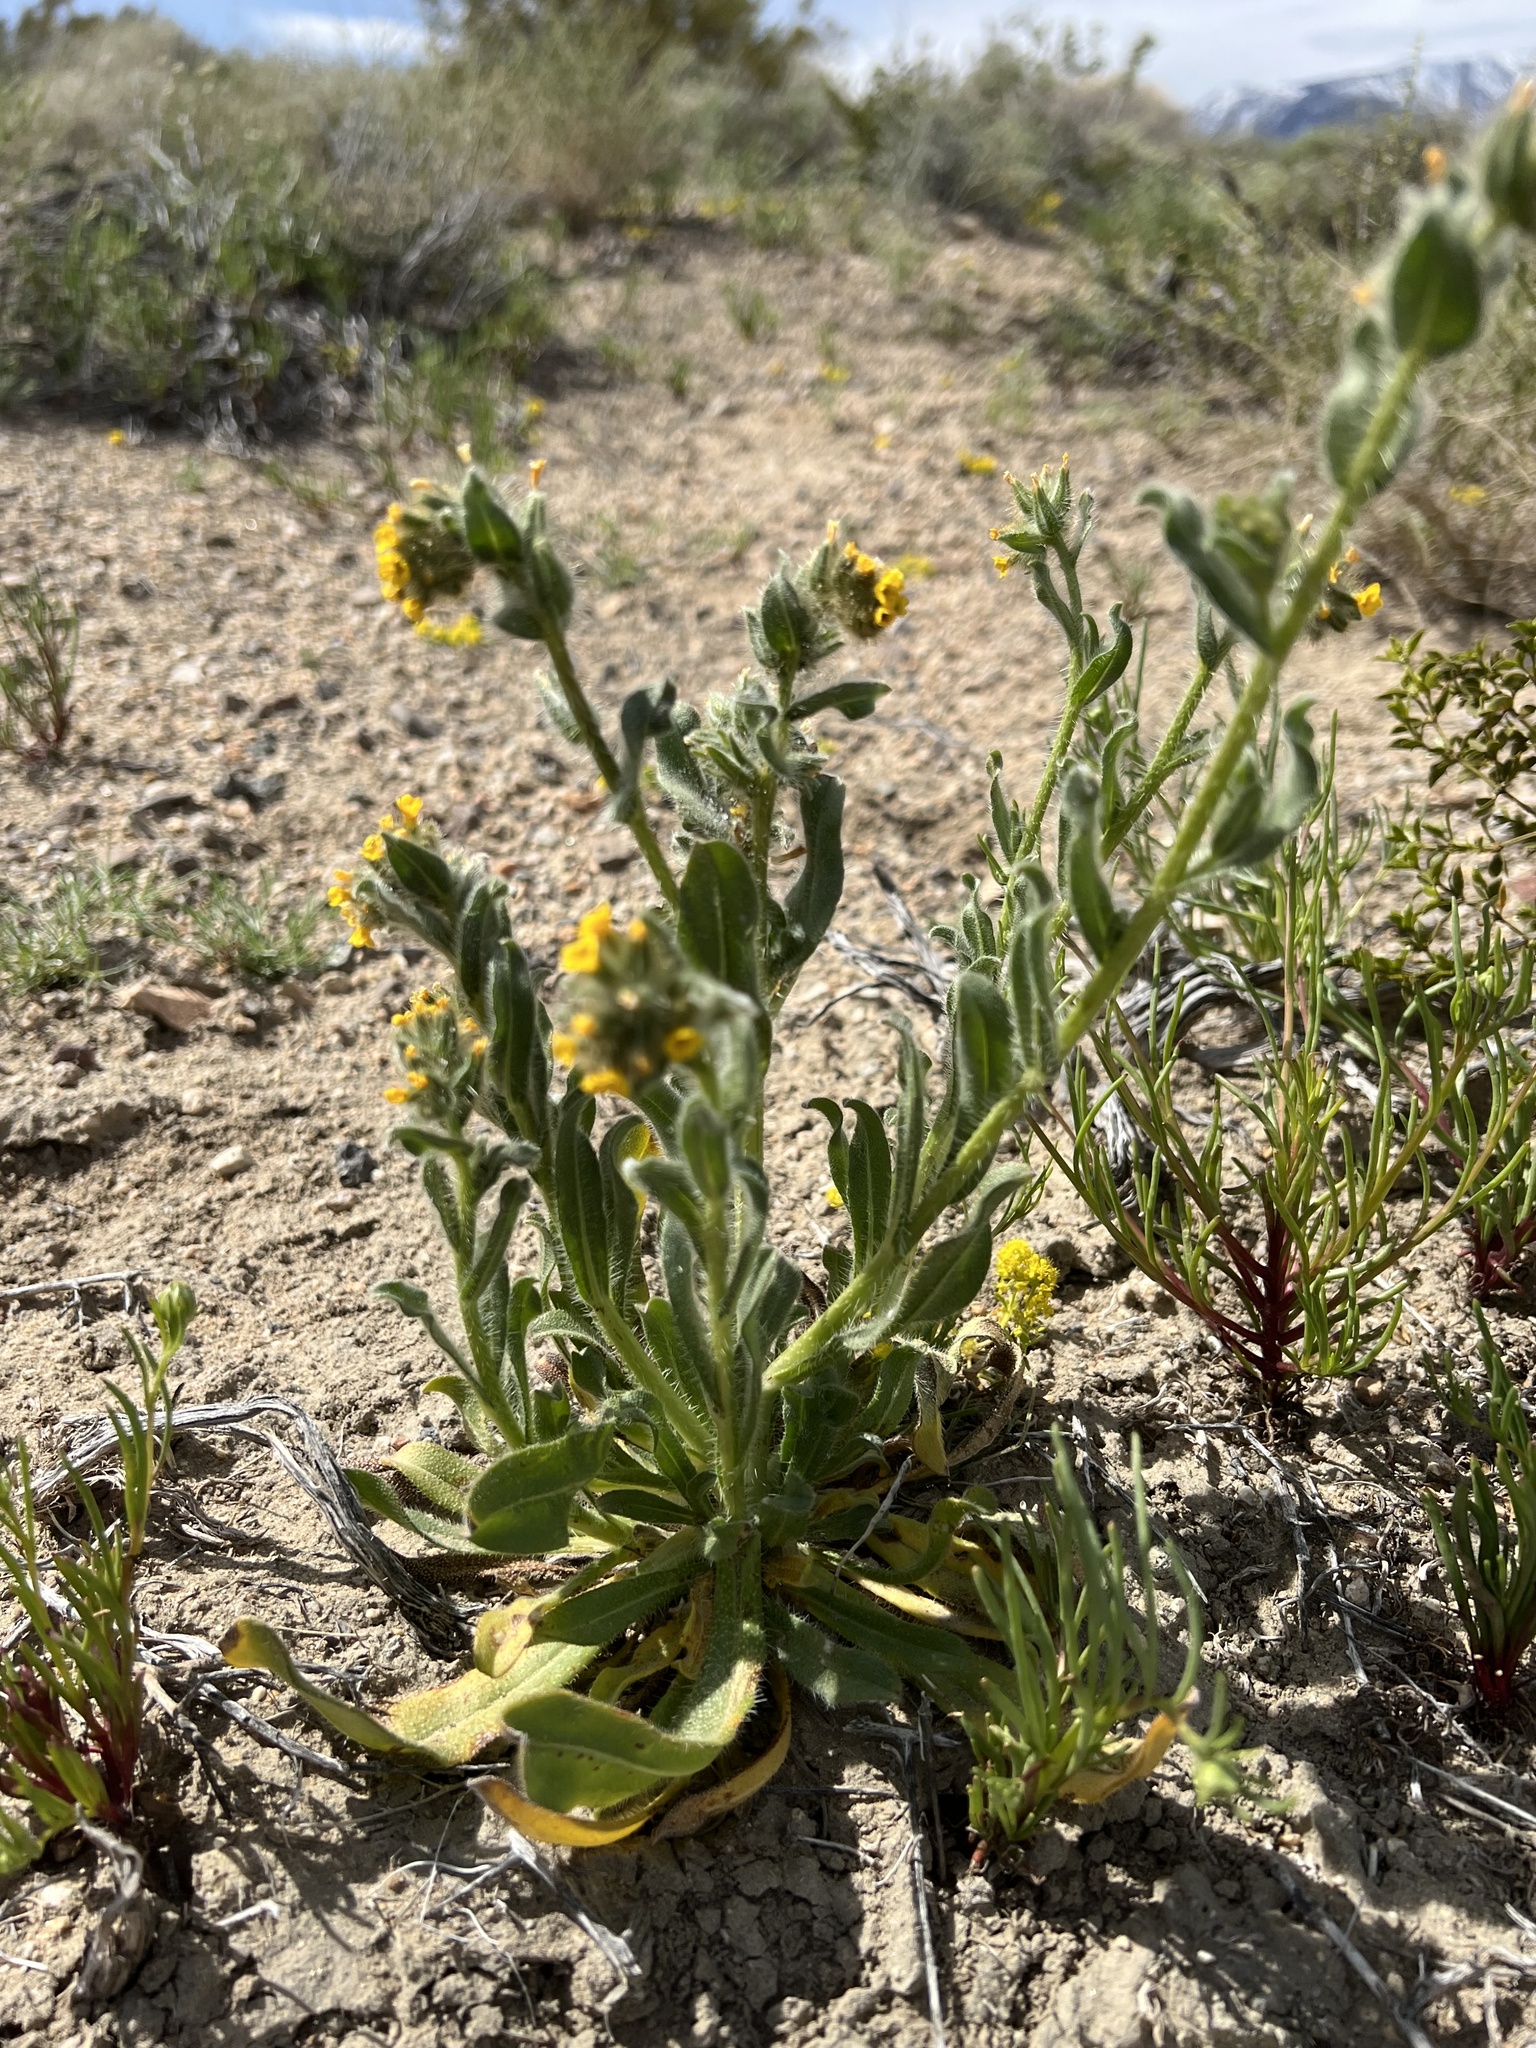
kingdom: Plantae
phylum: Tracheophyta
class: Magnoliopsida
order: Boraginales
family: Boraginaceae
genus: Amsinckia
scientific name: Amsinckia tessellata
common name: Tessellate fiddleneck
